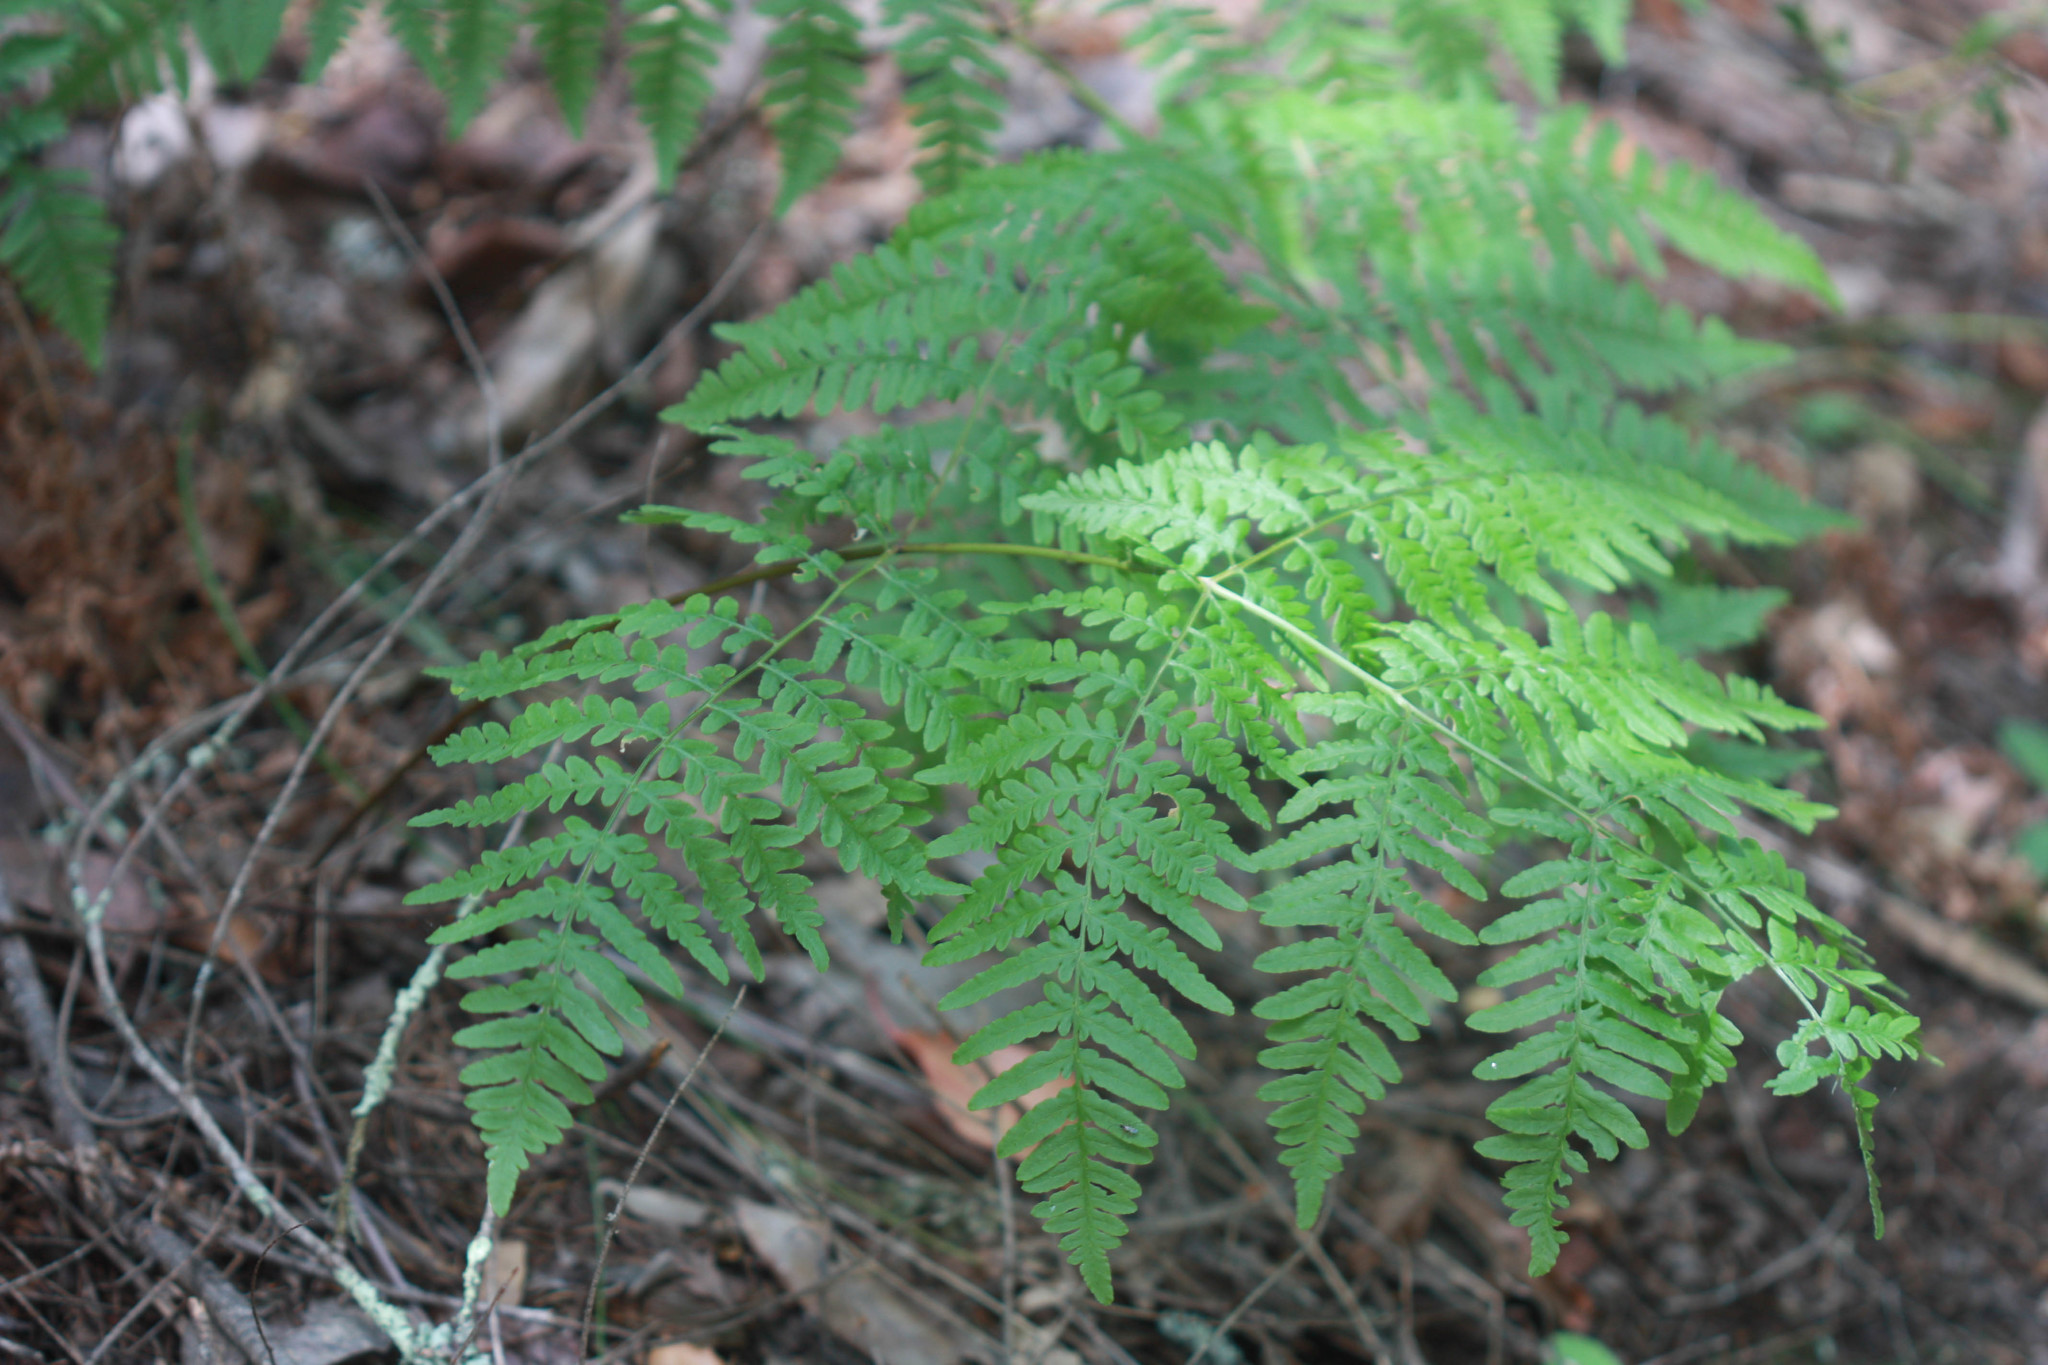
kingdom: Plantae
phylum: Tracheophyta
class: Polypodiopsida
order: Polypodiales
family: Dennstaedtiaceae
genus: Pteridium
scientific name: Pteridium aquilinum
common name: Bracken
